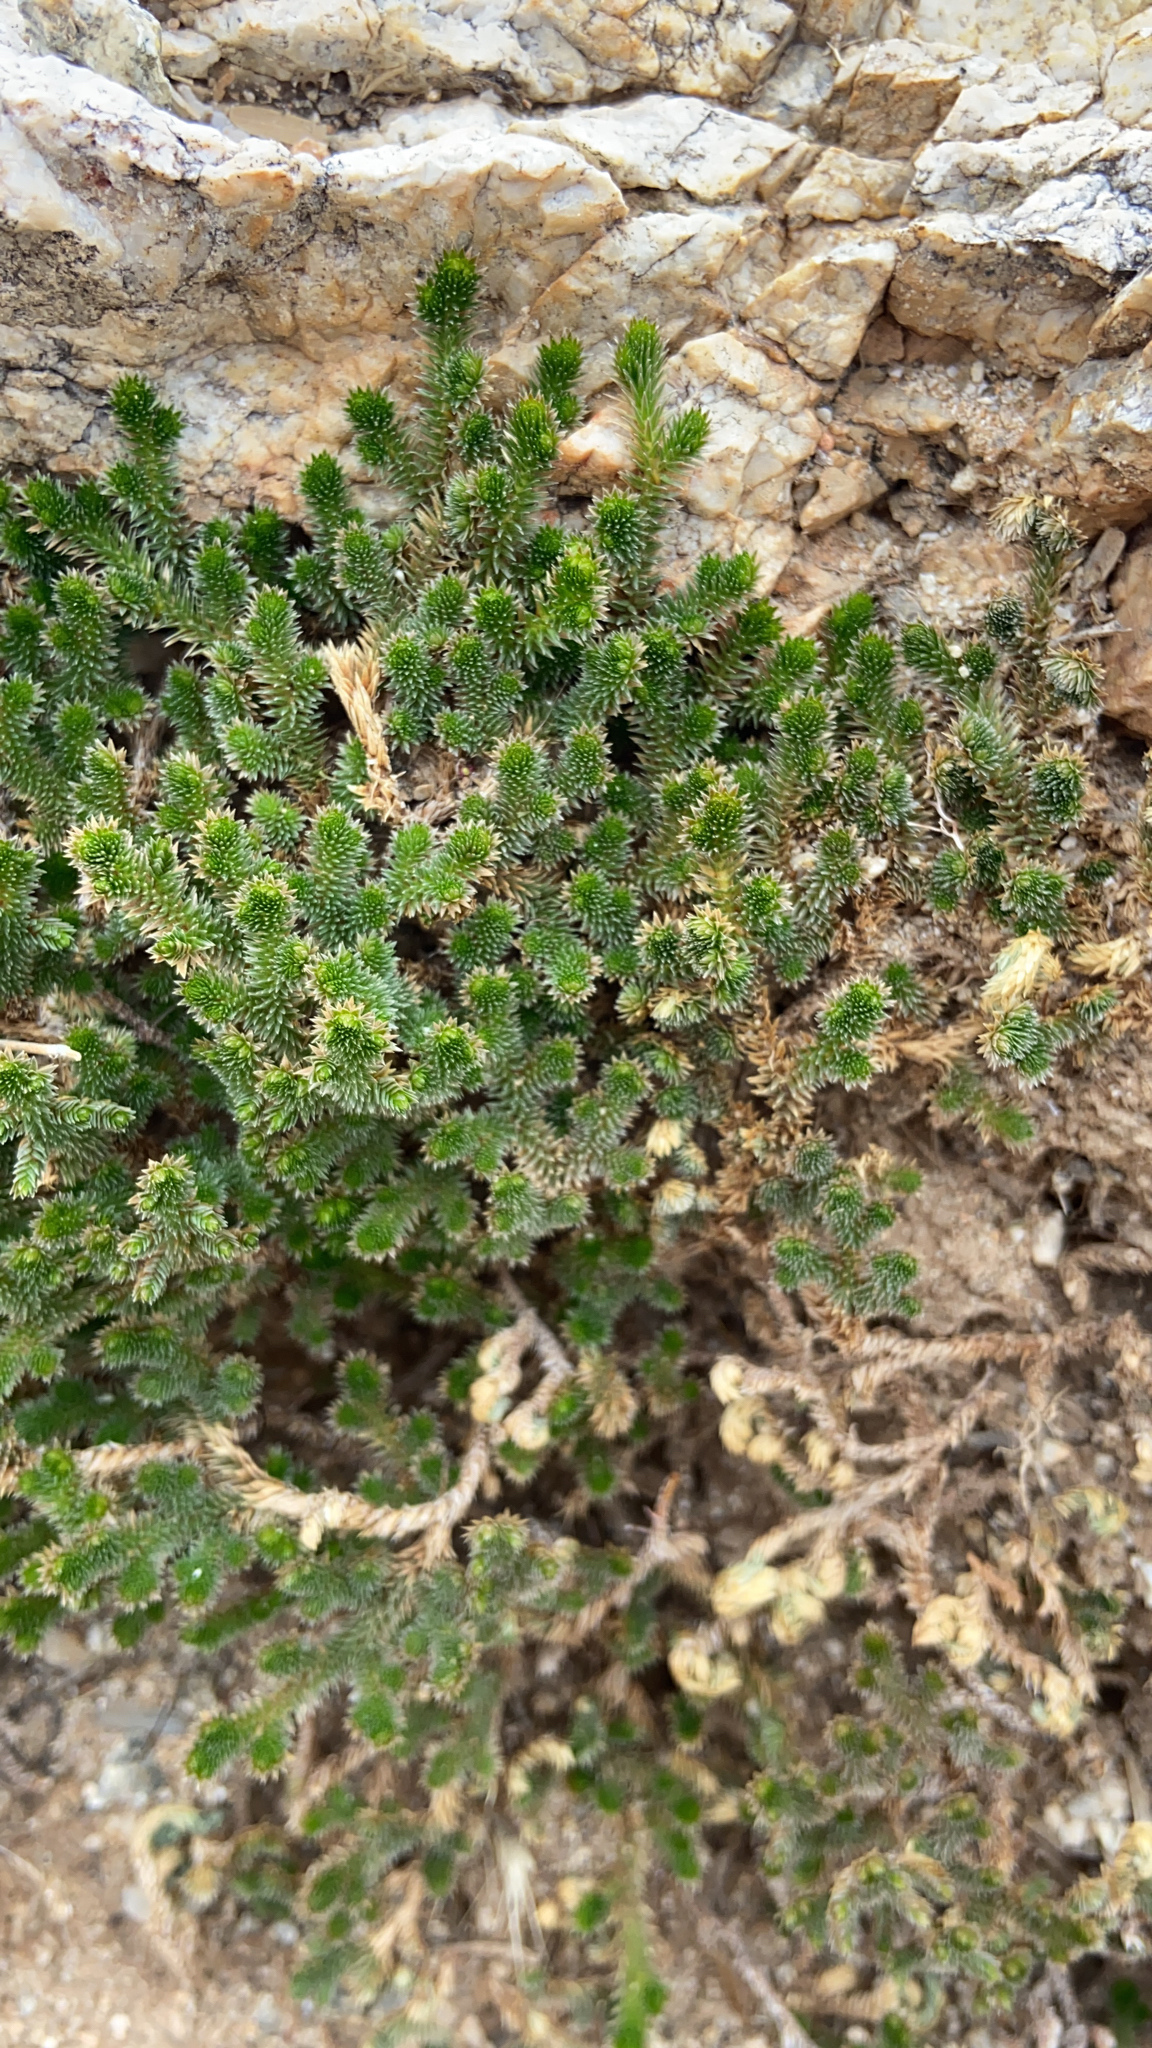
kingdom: Plantae
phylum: Tracheophyta
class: Lycopodiopsida
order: Selaginellales
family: Selaginellaceae
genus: Selaginella
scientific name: Selaginella arizonica
